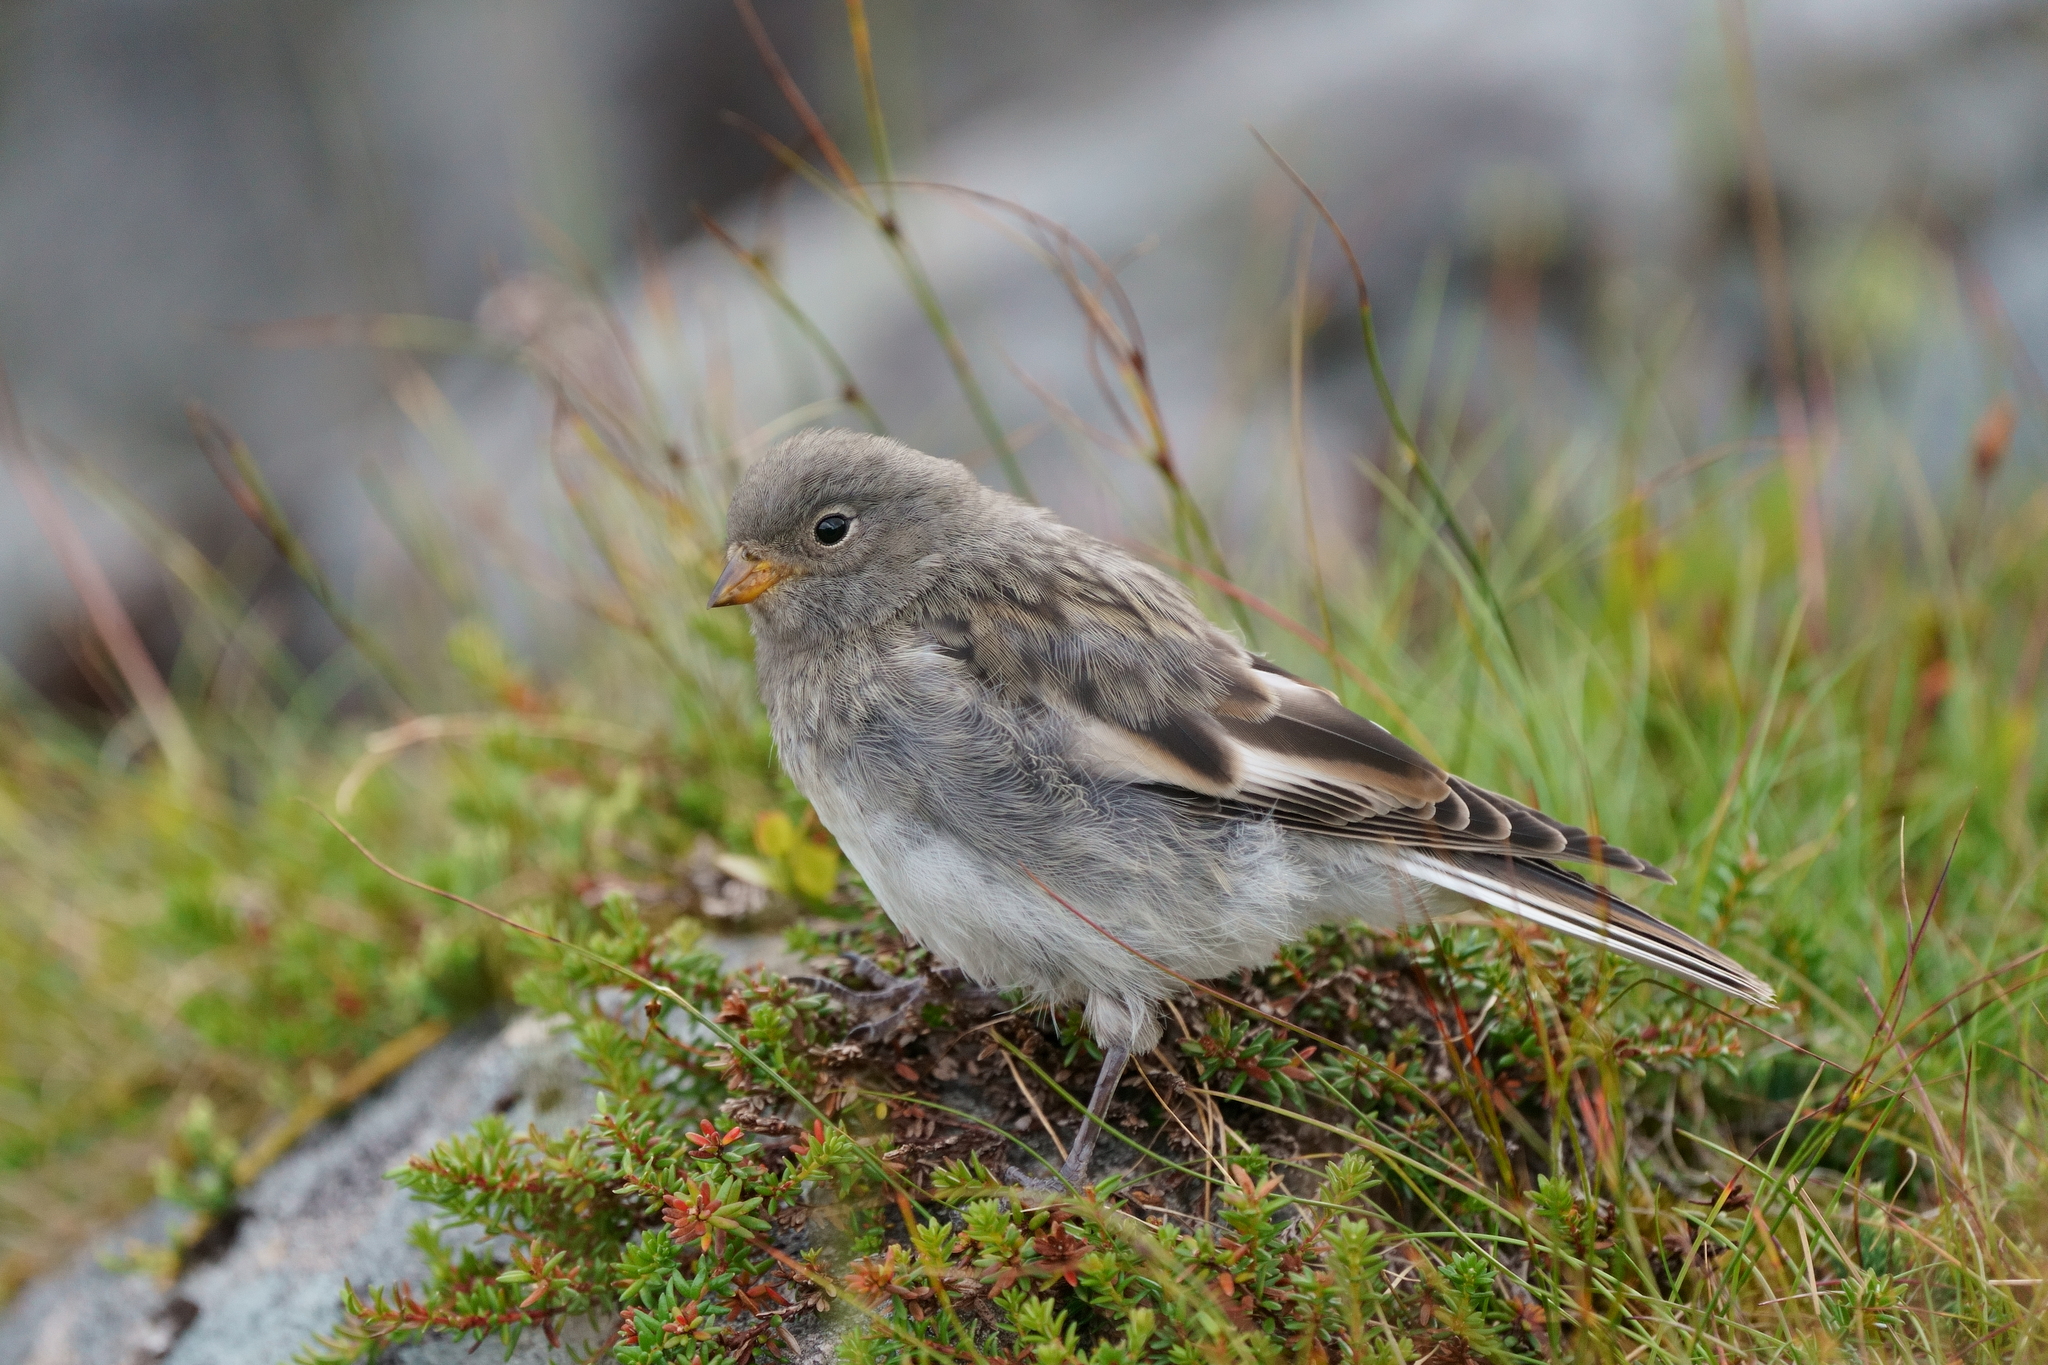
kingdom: Animalia
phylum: Chordata
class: Aves
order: Passeriformes
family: Calcariidae
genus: Plectrophenax
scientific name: Plectrophenax nivalis
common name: Snow bunting
